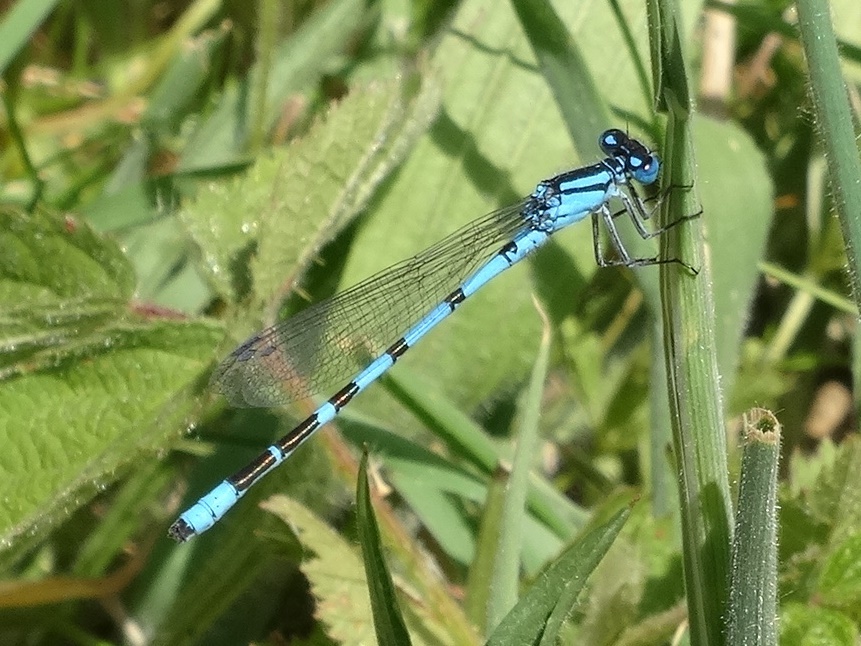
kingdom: Animalia
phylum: Arthropoda
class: Insecta
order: Odonata
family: Coenagrionidae
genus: Enallagma
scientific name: Enallagma cyathigerum
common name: Common blue damselfly
